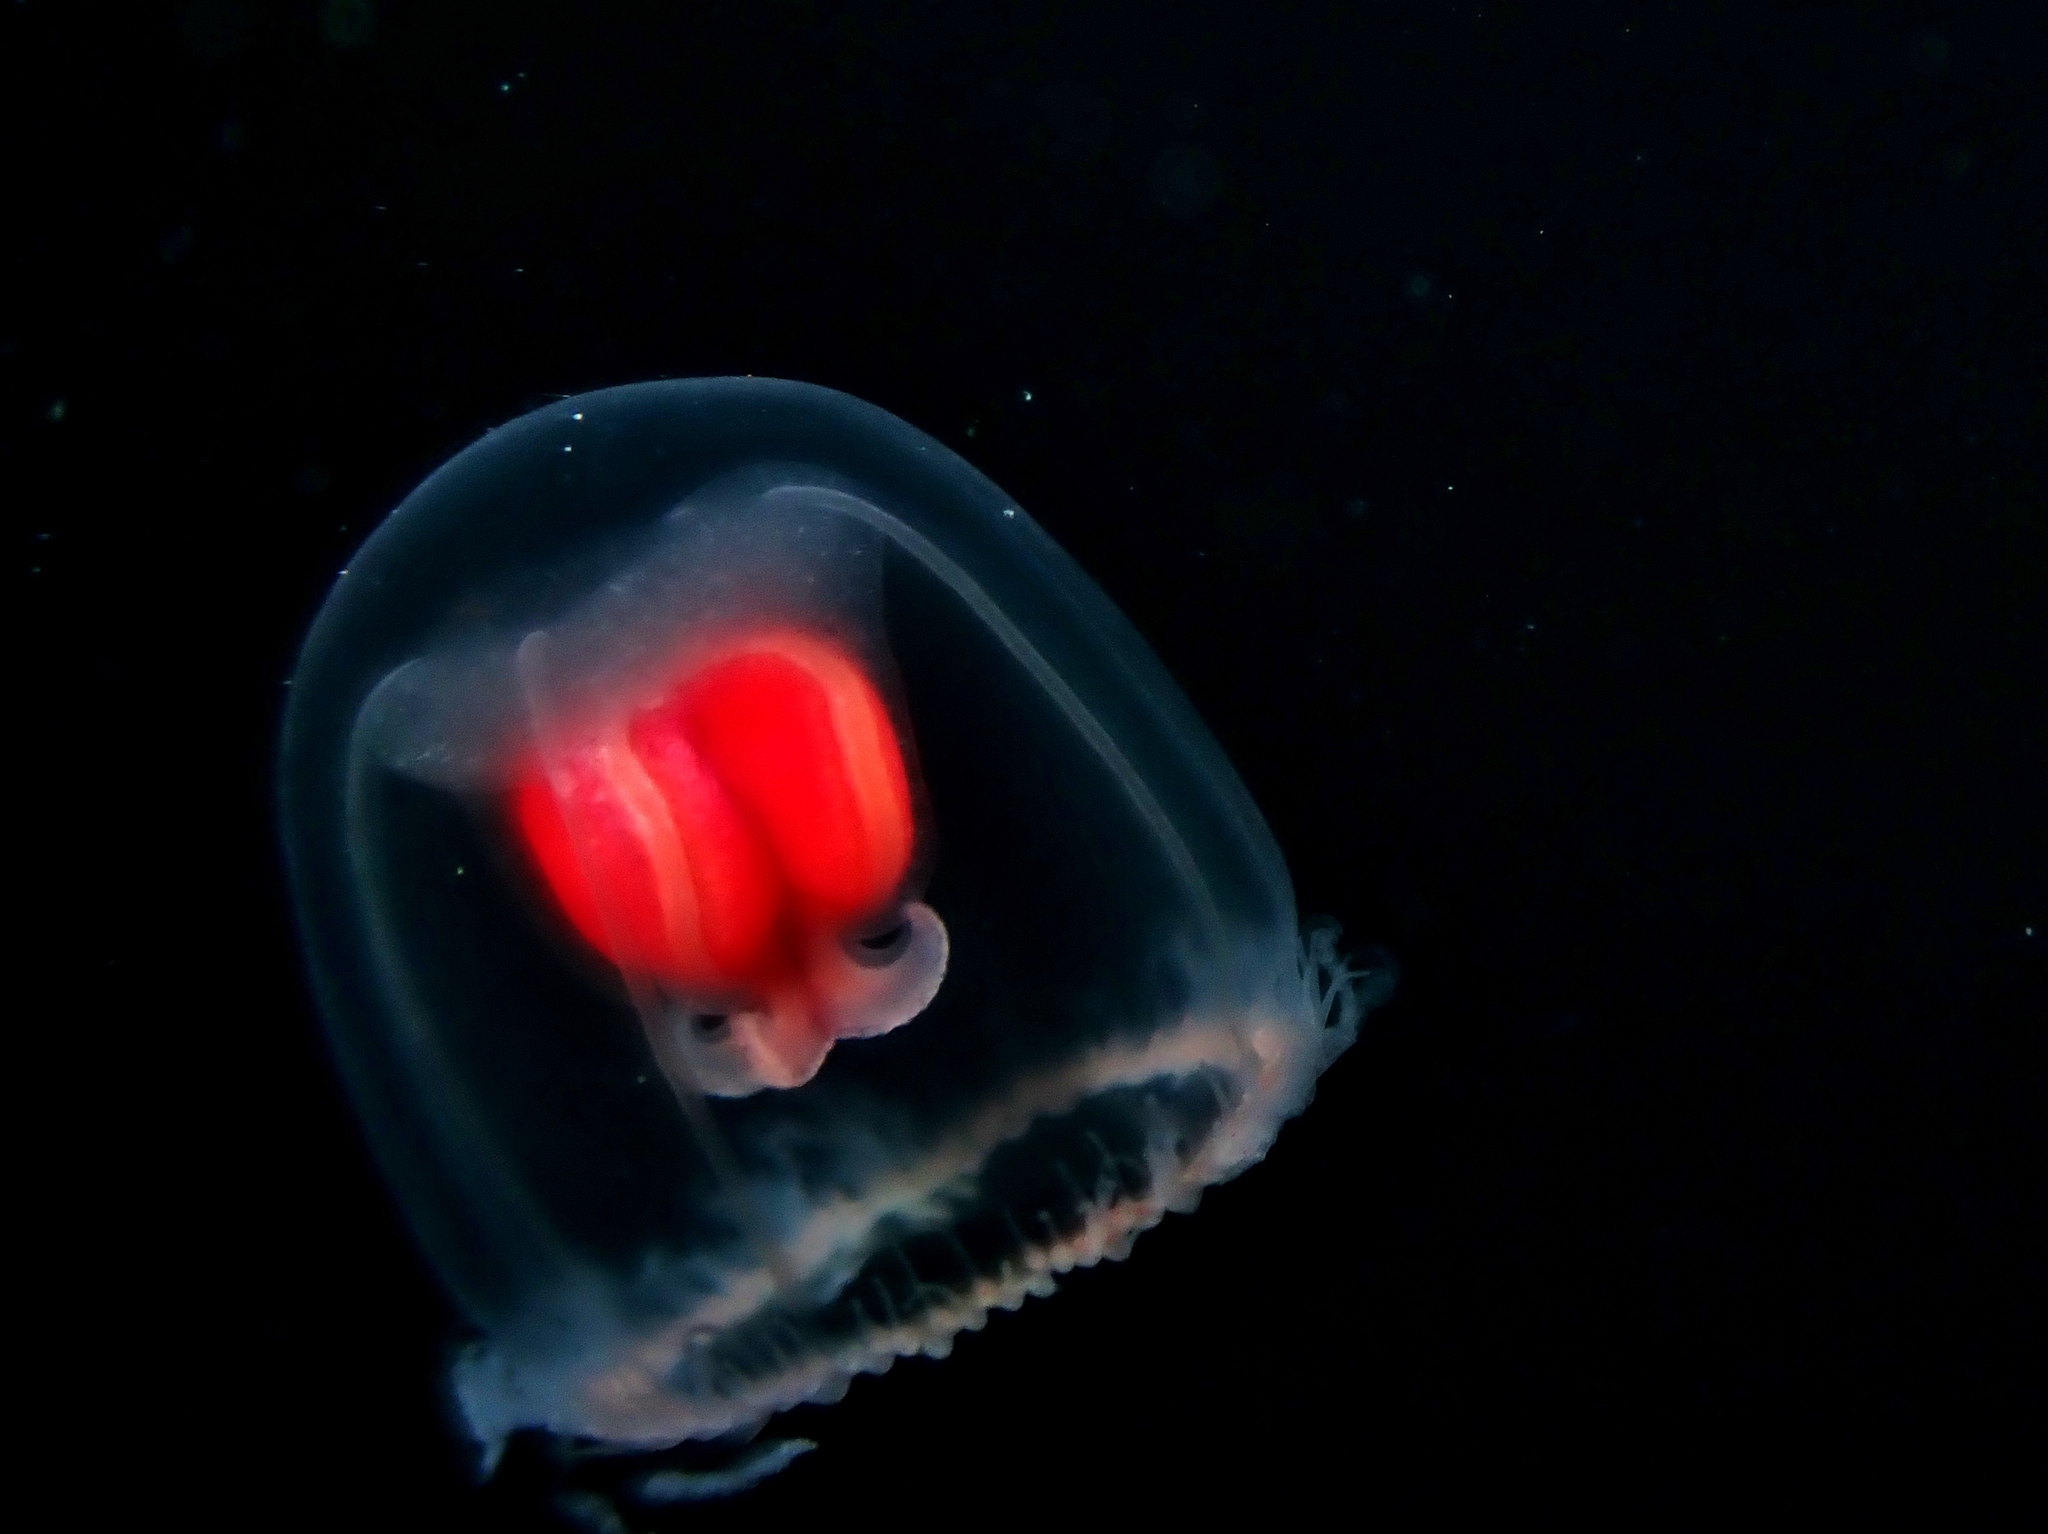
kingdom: Animalia
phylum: Cnidaria
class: Hydrozoa
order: Anthoathecata
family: Oceaniidae
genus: Turritopsis
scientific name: Turritopsis rubra
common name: Crimson jelly
